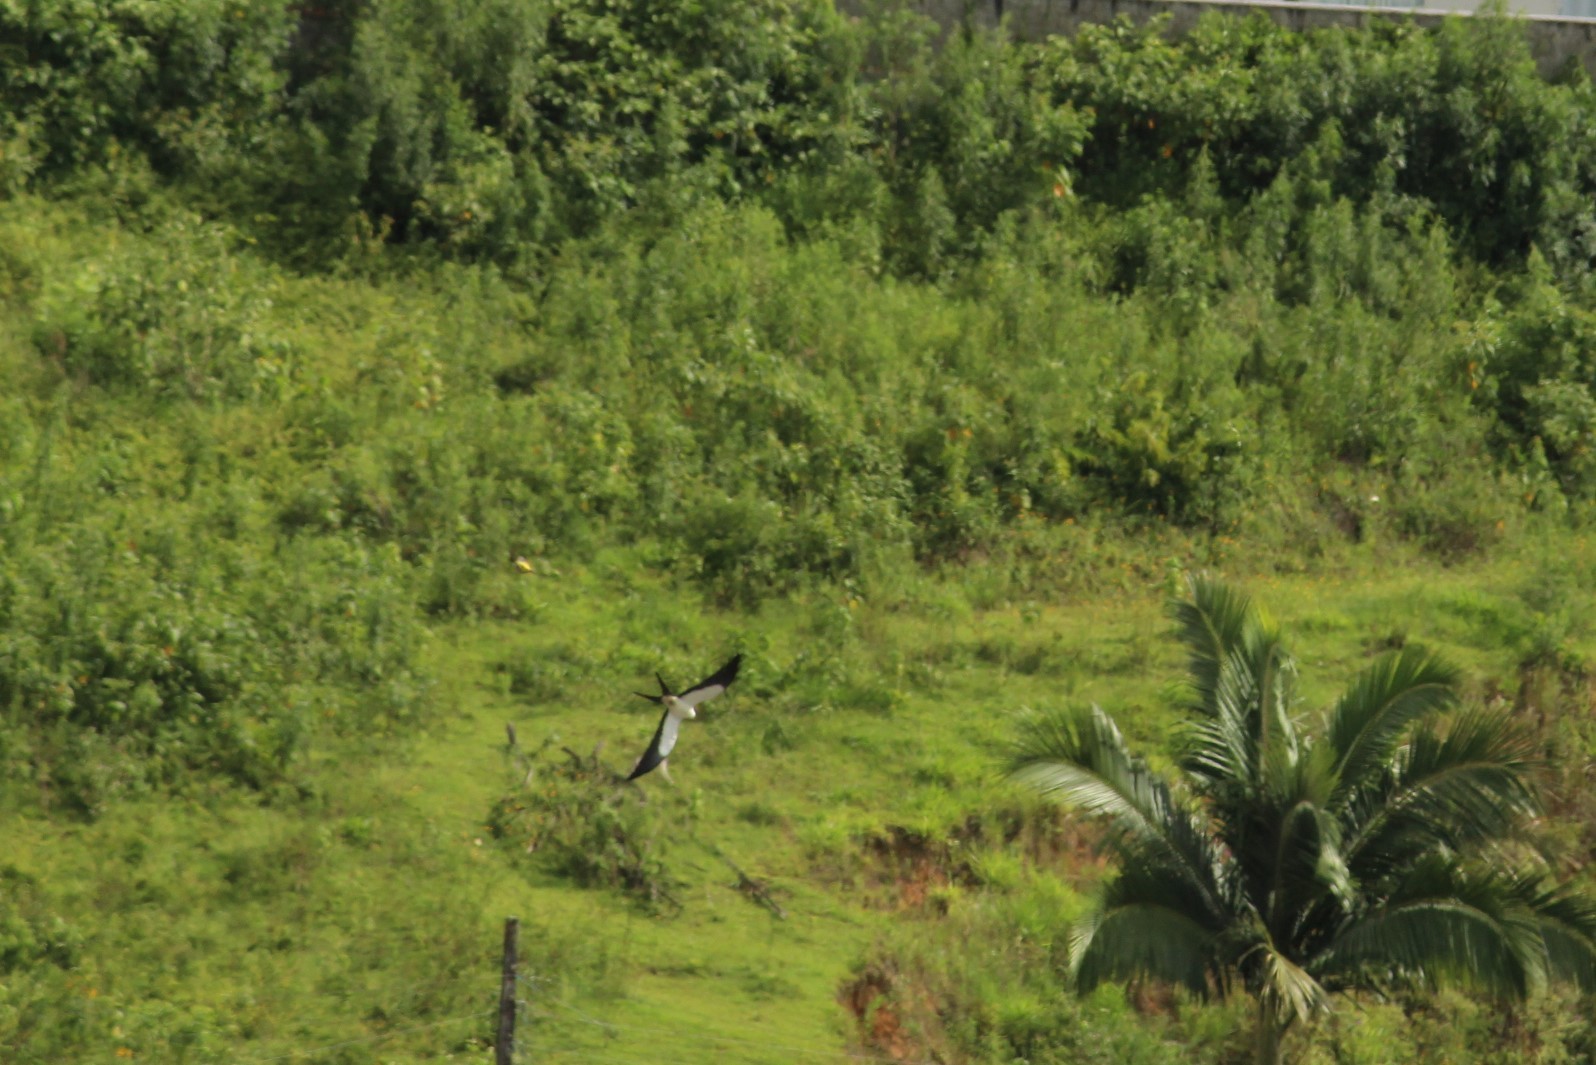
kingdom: Animalia
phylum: Chordata
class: Aves
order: Accipitriformes
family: Accipitridae
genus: Elanoides
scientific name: Elanoides forficatus
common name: Swallow-tailed kite
